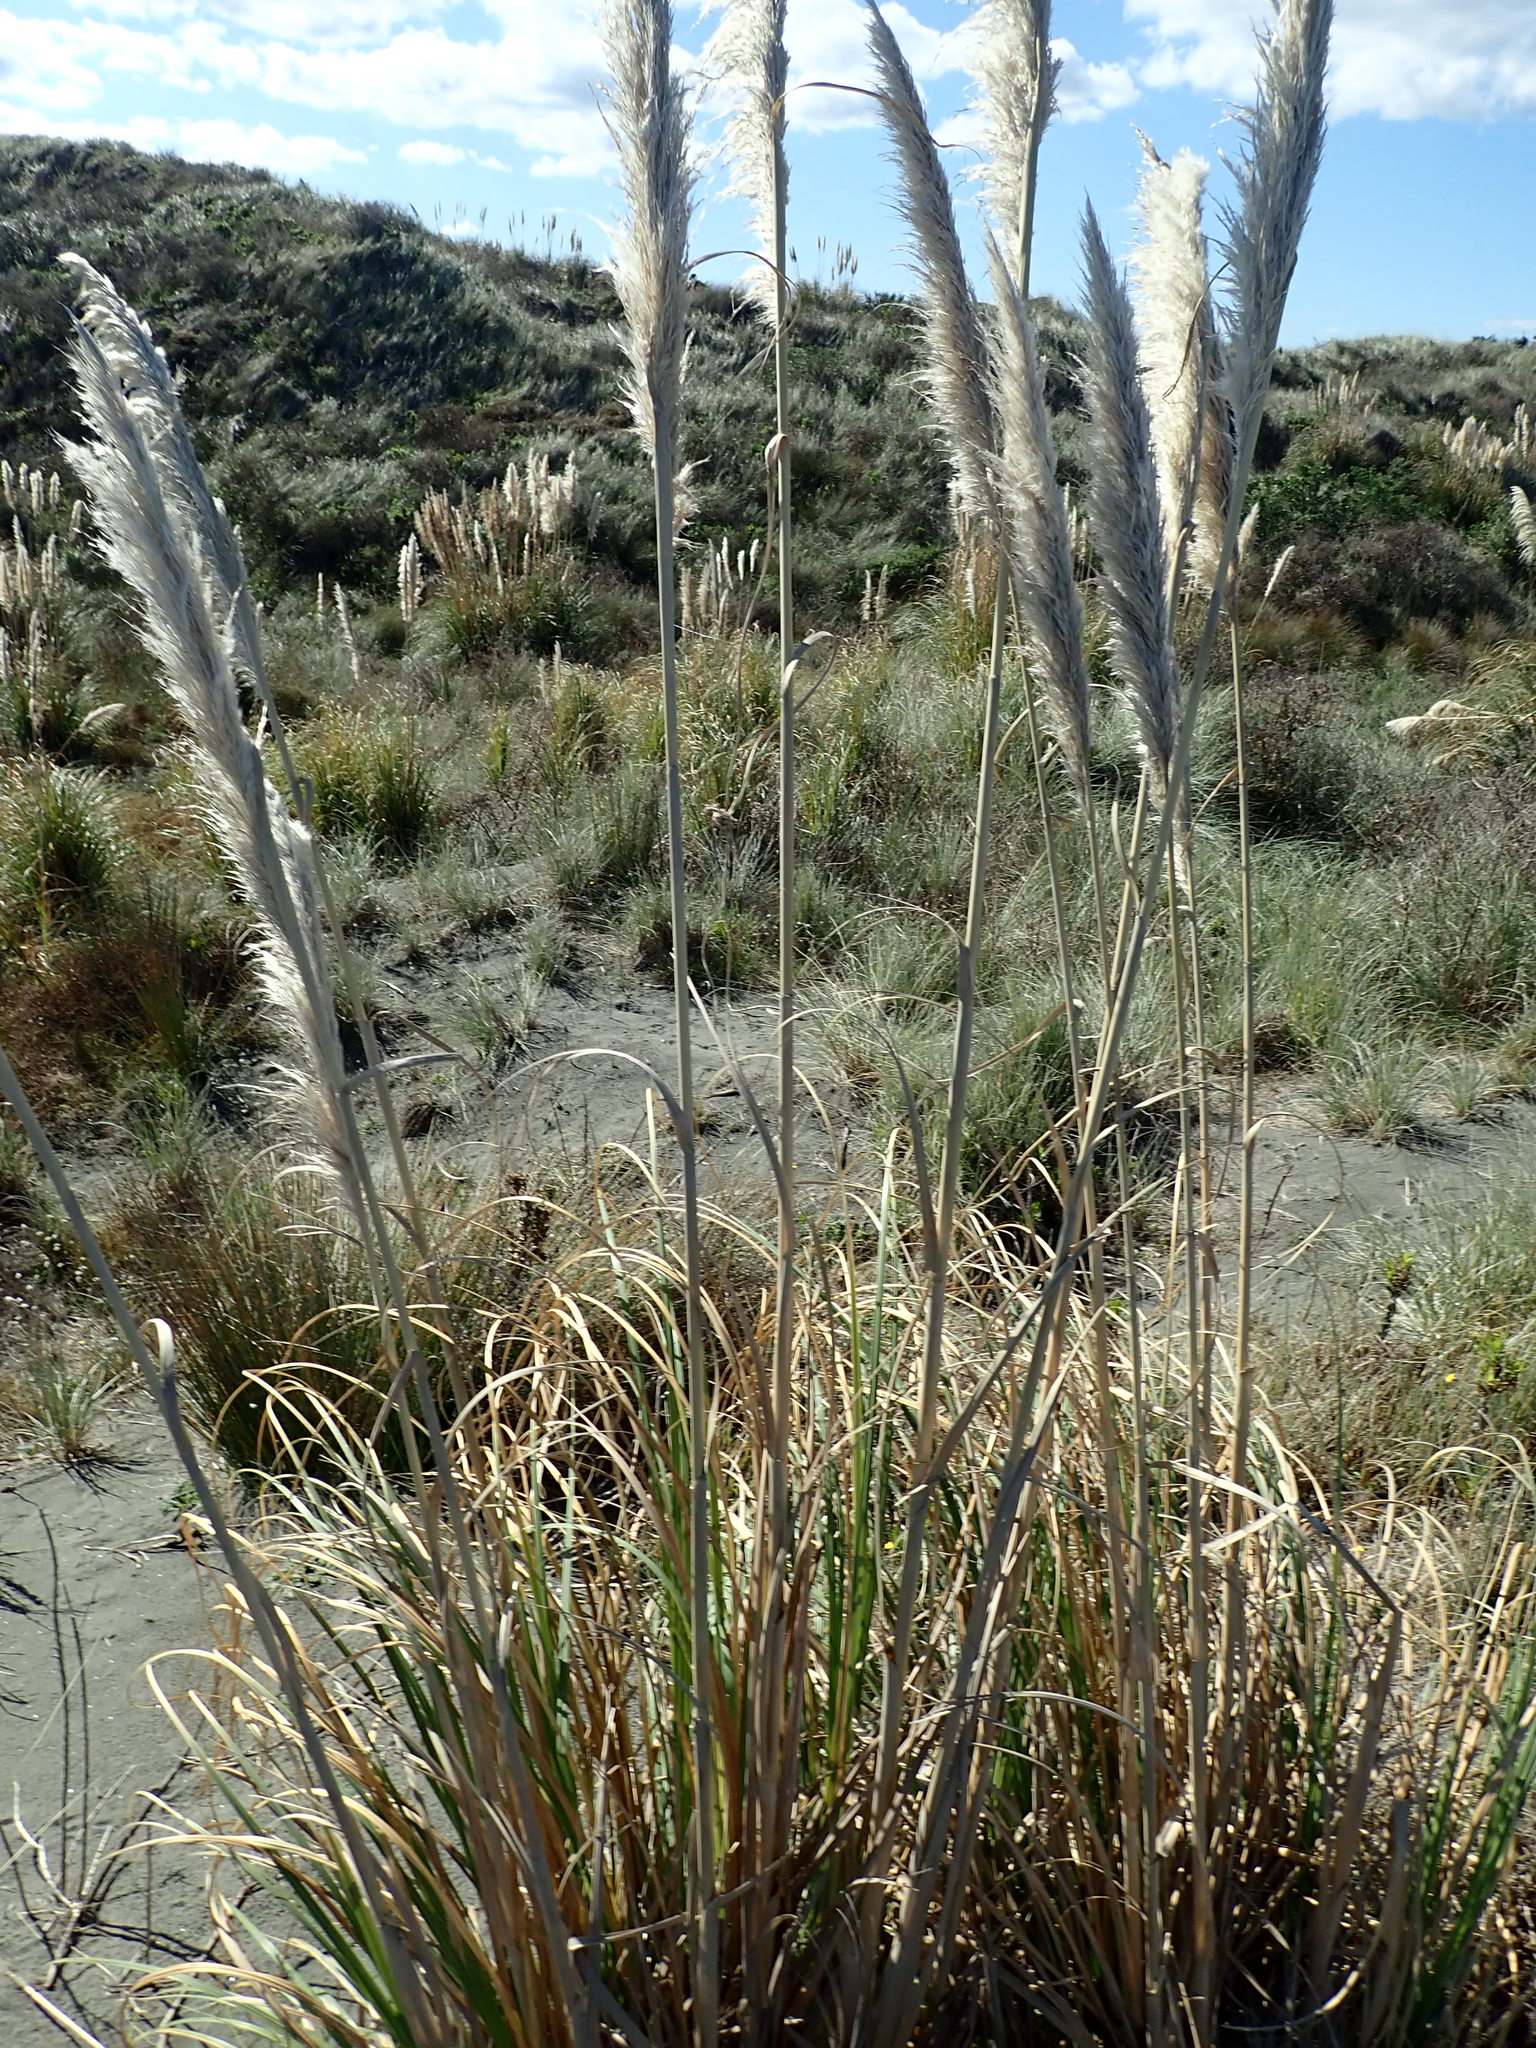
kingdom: Plantae
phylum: Tracheophyta
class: Liliopsida
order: Poales
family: Poaceae
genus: Cortaderia
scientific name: Cortaderia selloana
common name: Uruguayan pampas grass
